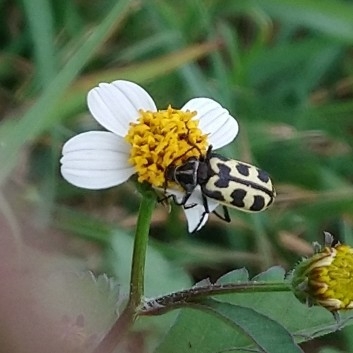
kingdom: Animalia
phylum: Arthropoda
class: Insecta
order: Coleoptera
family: Melyridae
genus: Astylus
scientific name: Astylus atromaculatus
